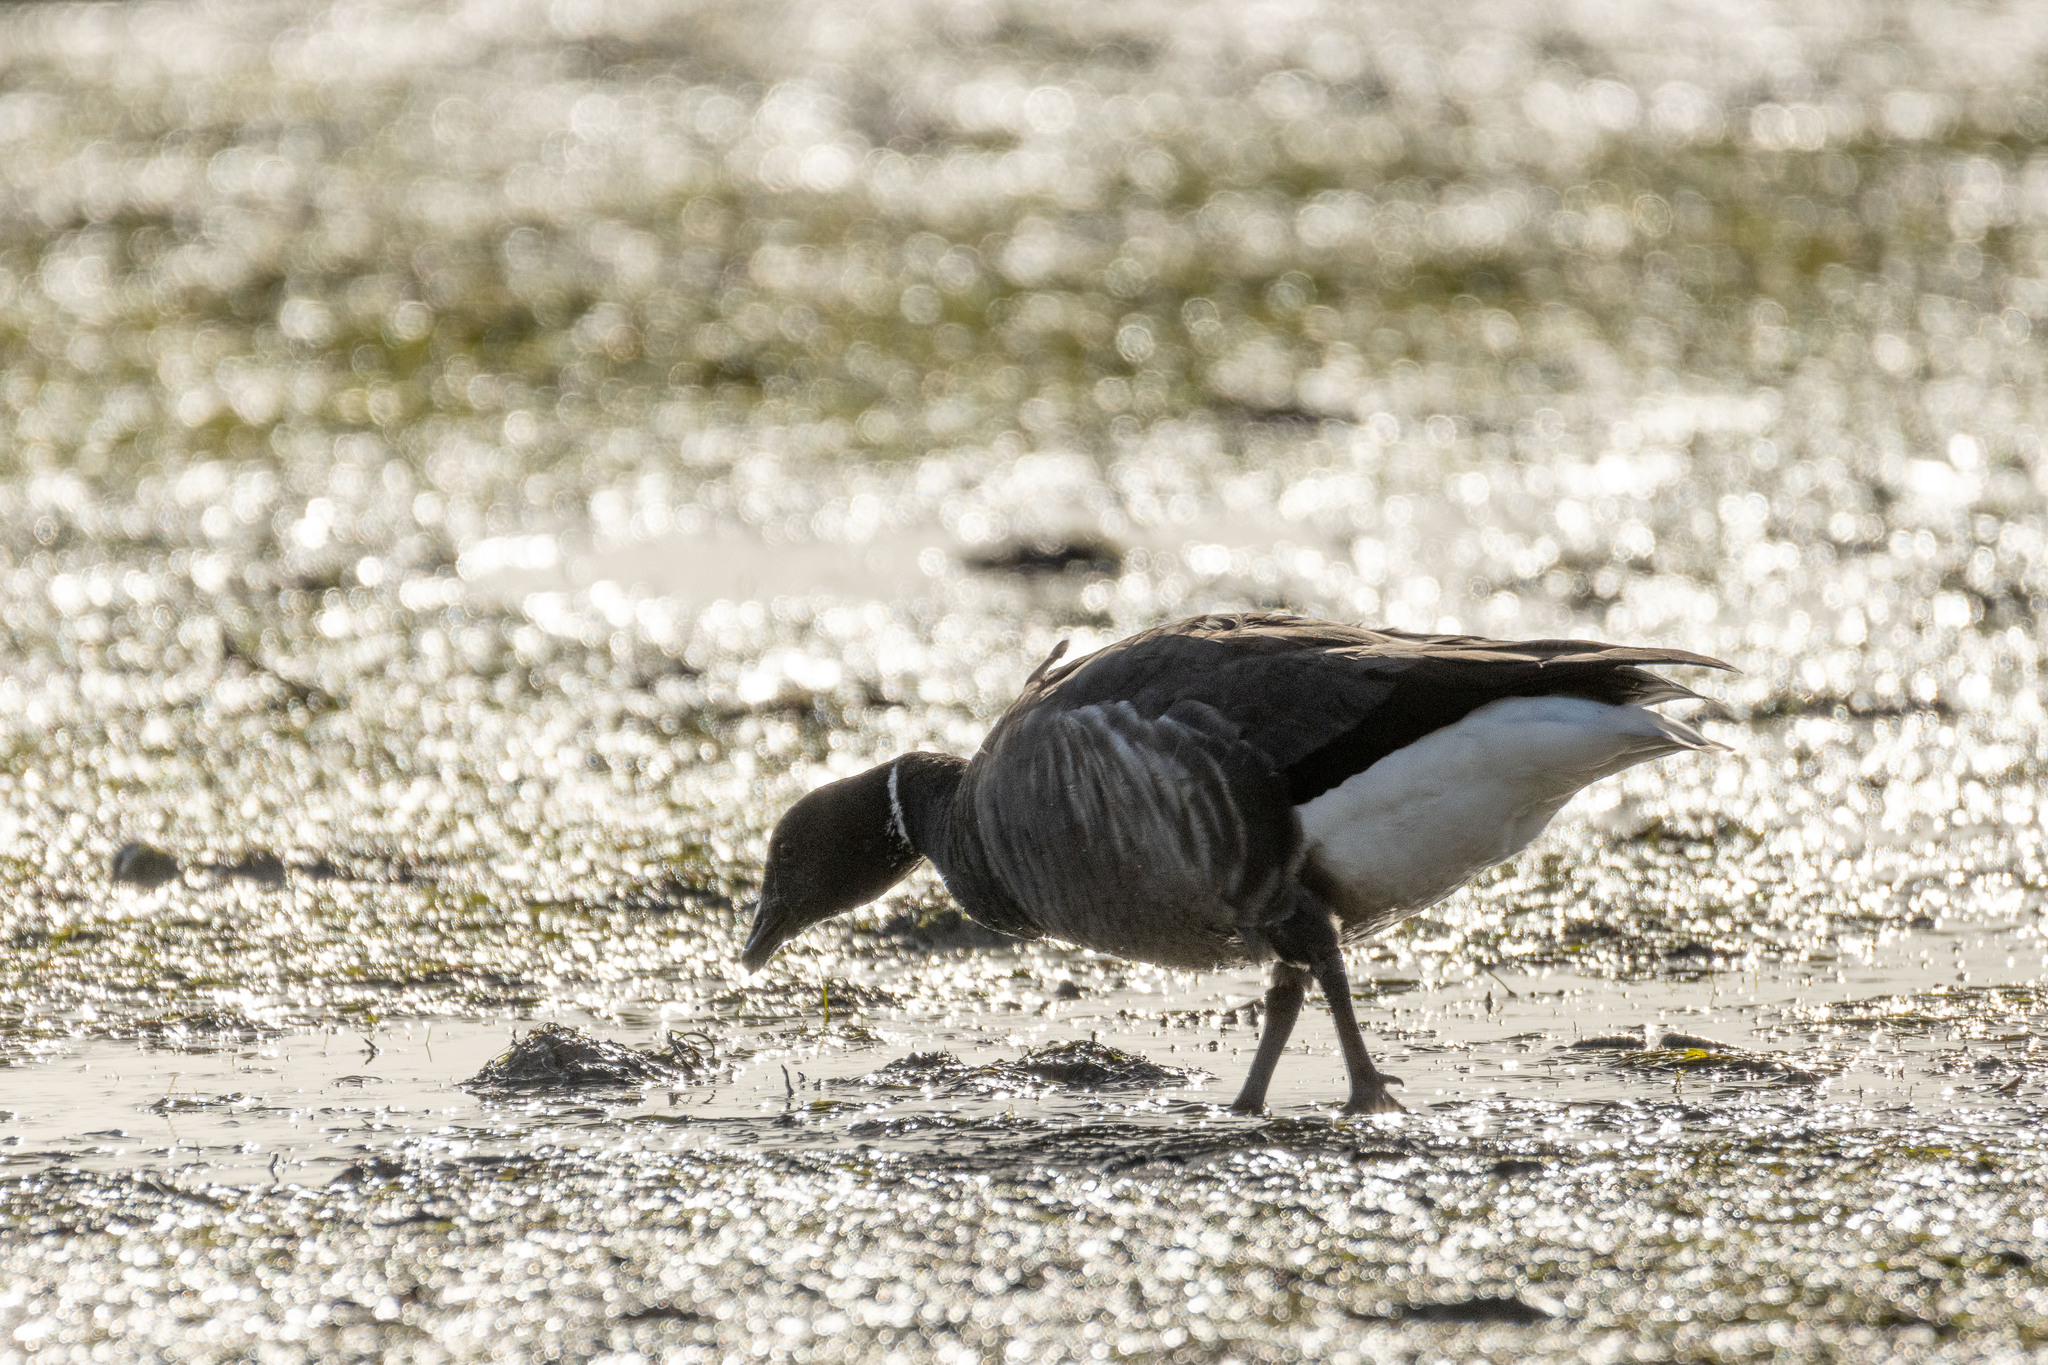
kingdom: Animalia
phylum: Chordata
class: Aves
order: Anseriformes
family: Anatidae
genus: Branta
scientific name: Branta bernicla
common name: Brant goose
